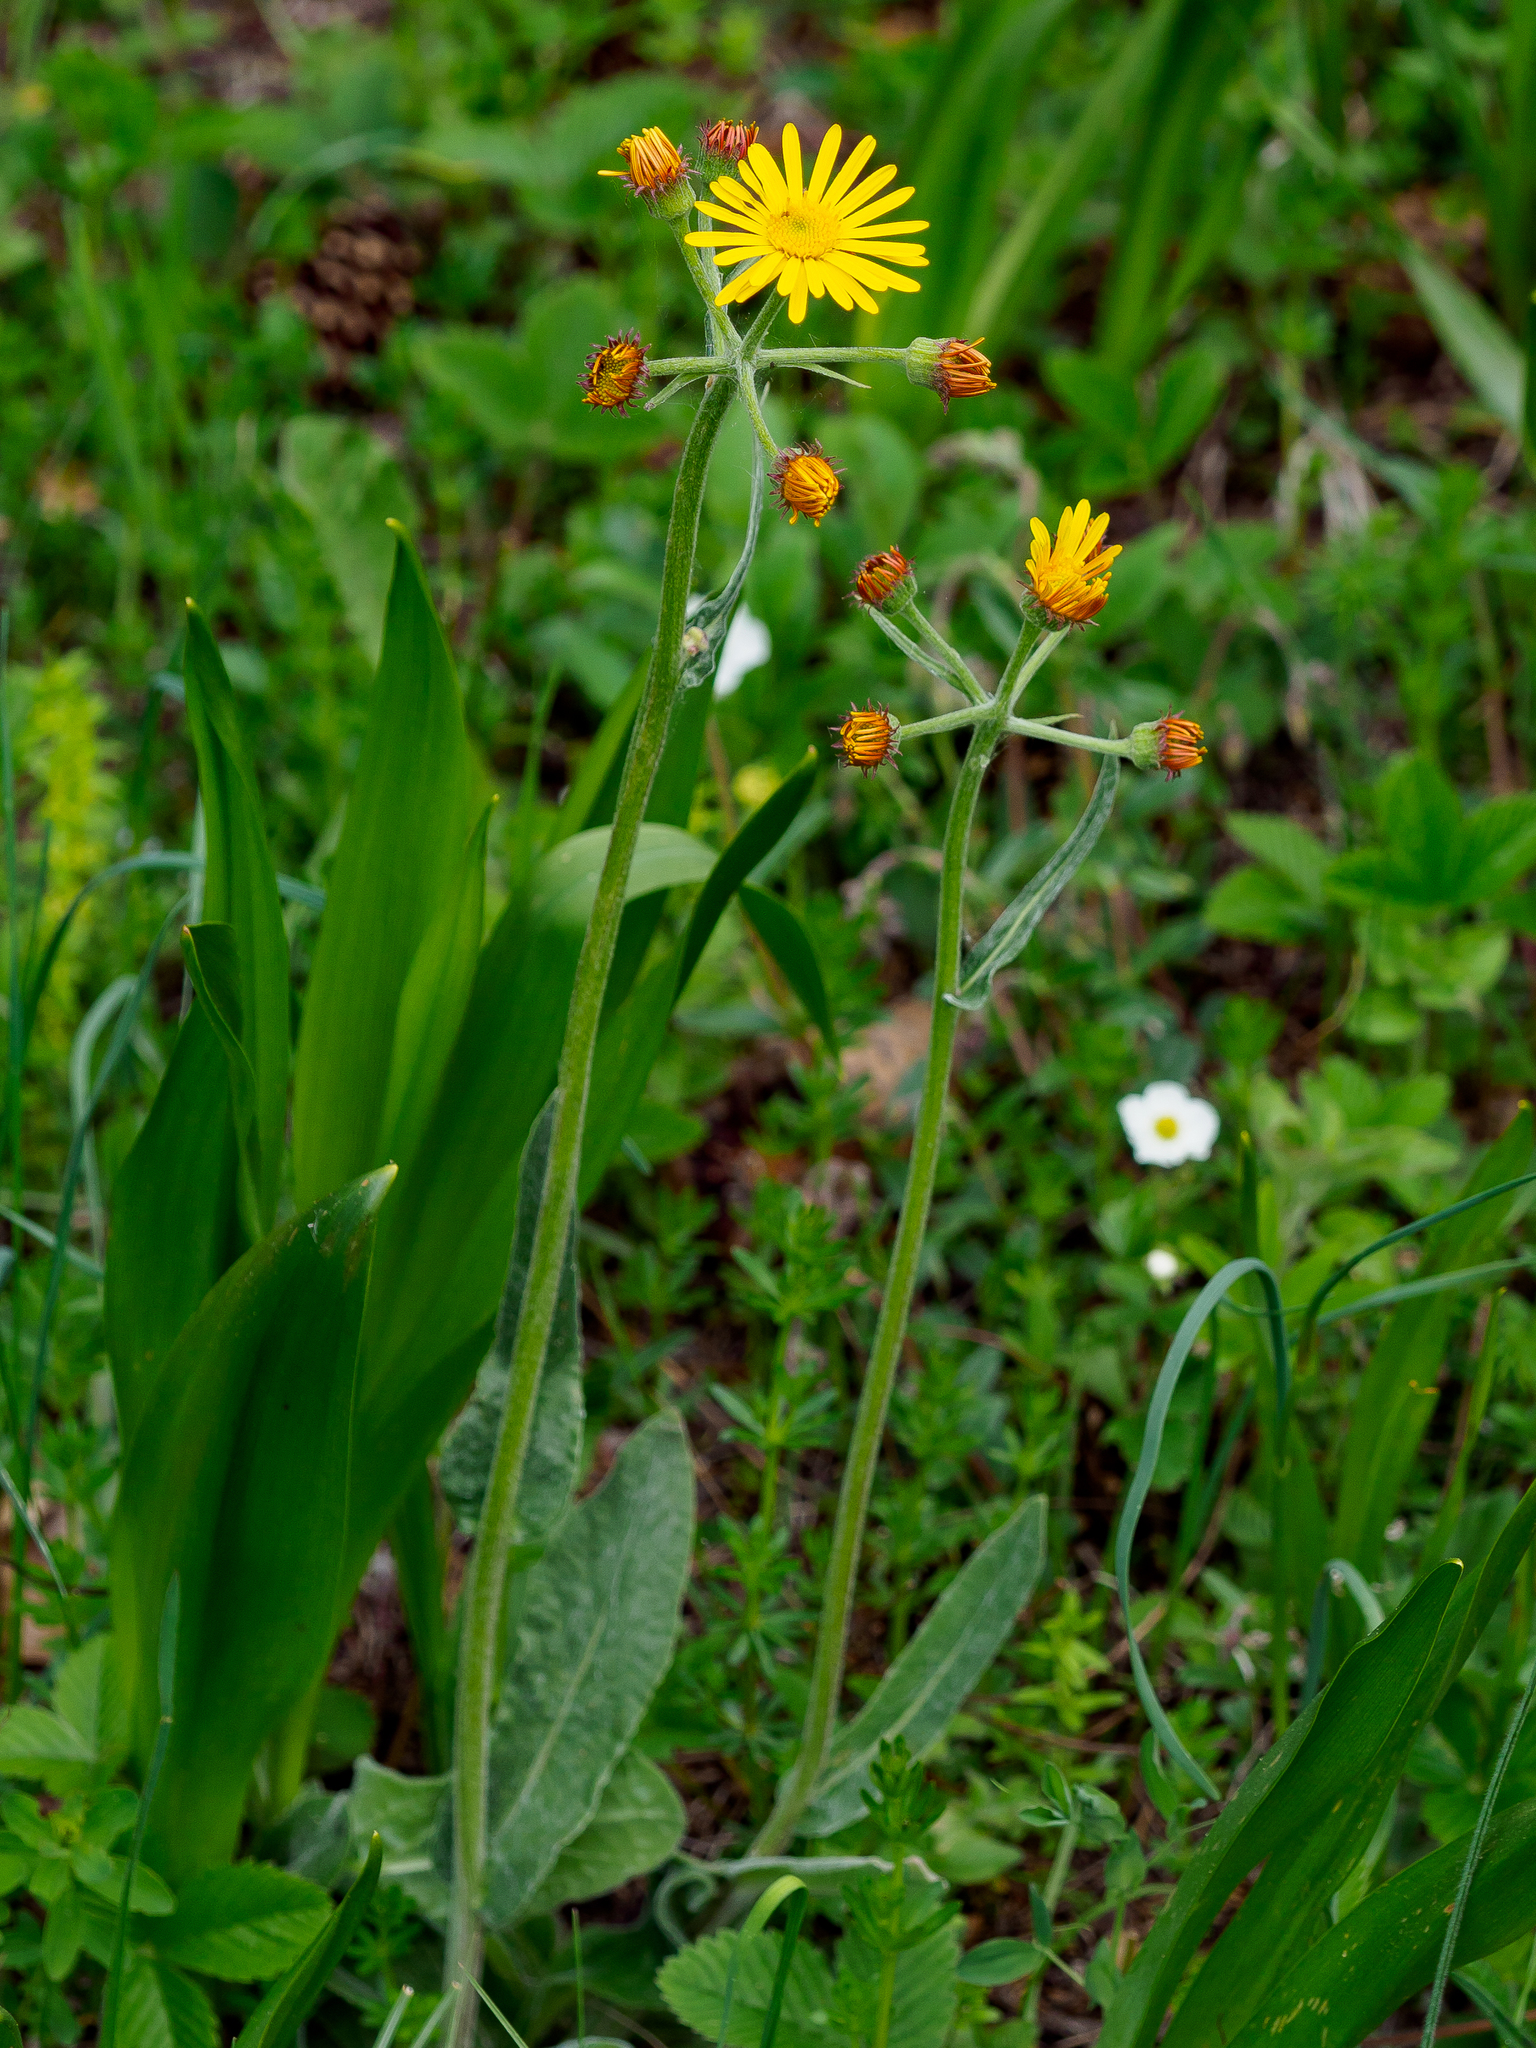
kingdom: Plantae
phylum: Tracheophyta
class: Magnoliopsida
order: Asterales
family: Asteraceae
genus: Tephroseris
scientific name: Tephroseris longifolia
